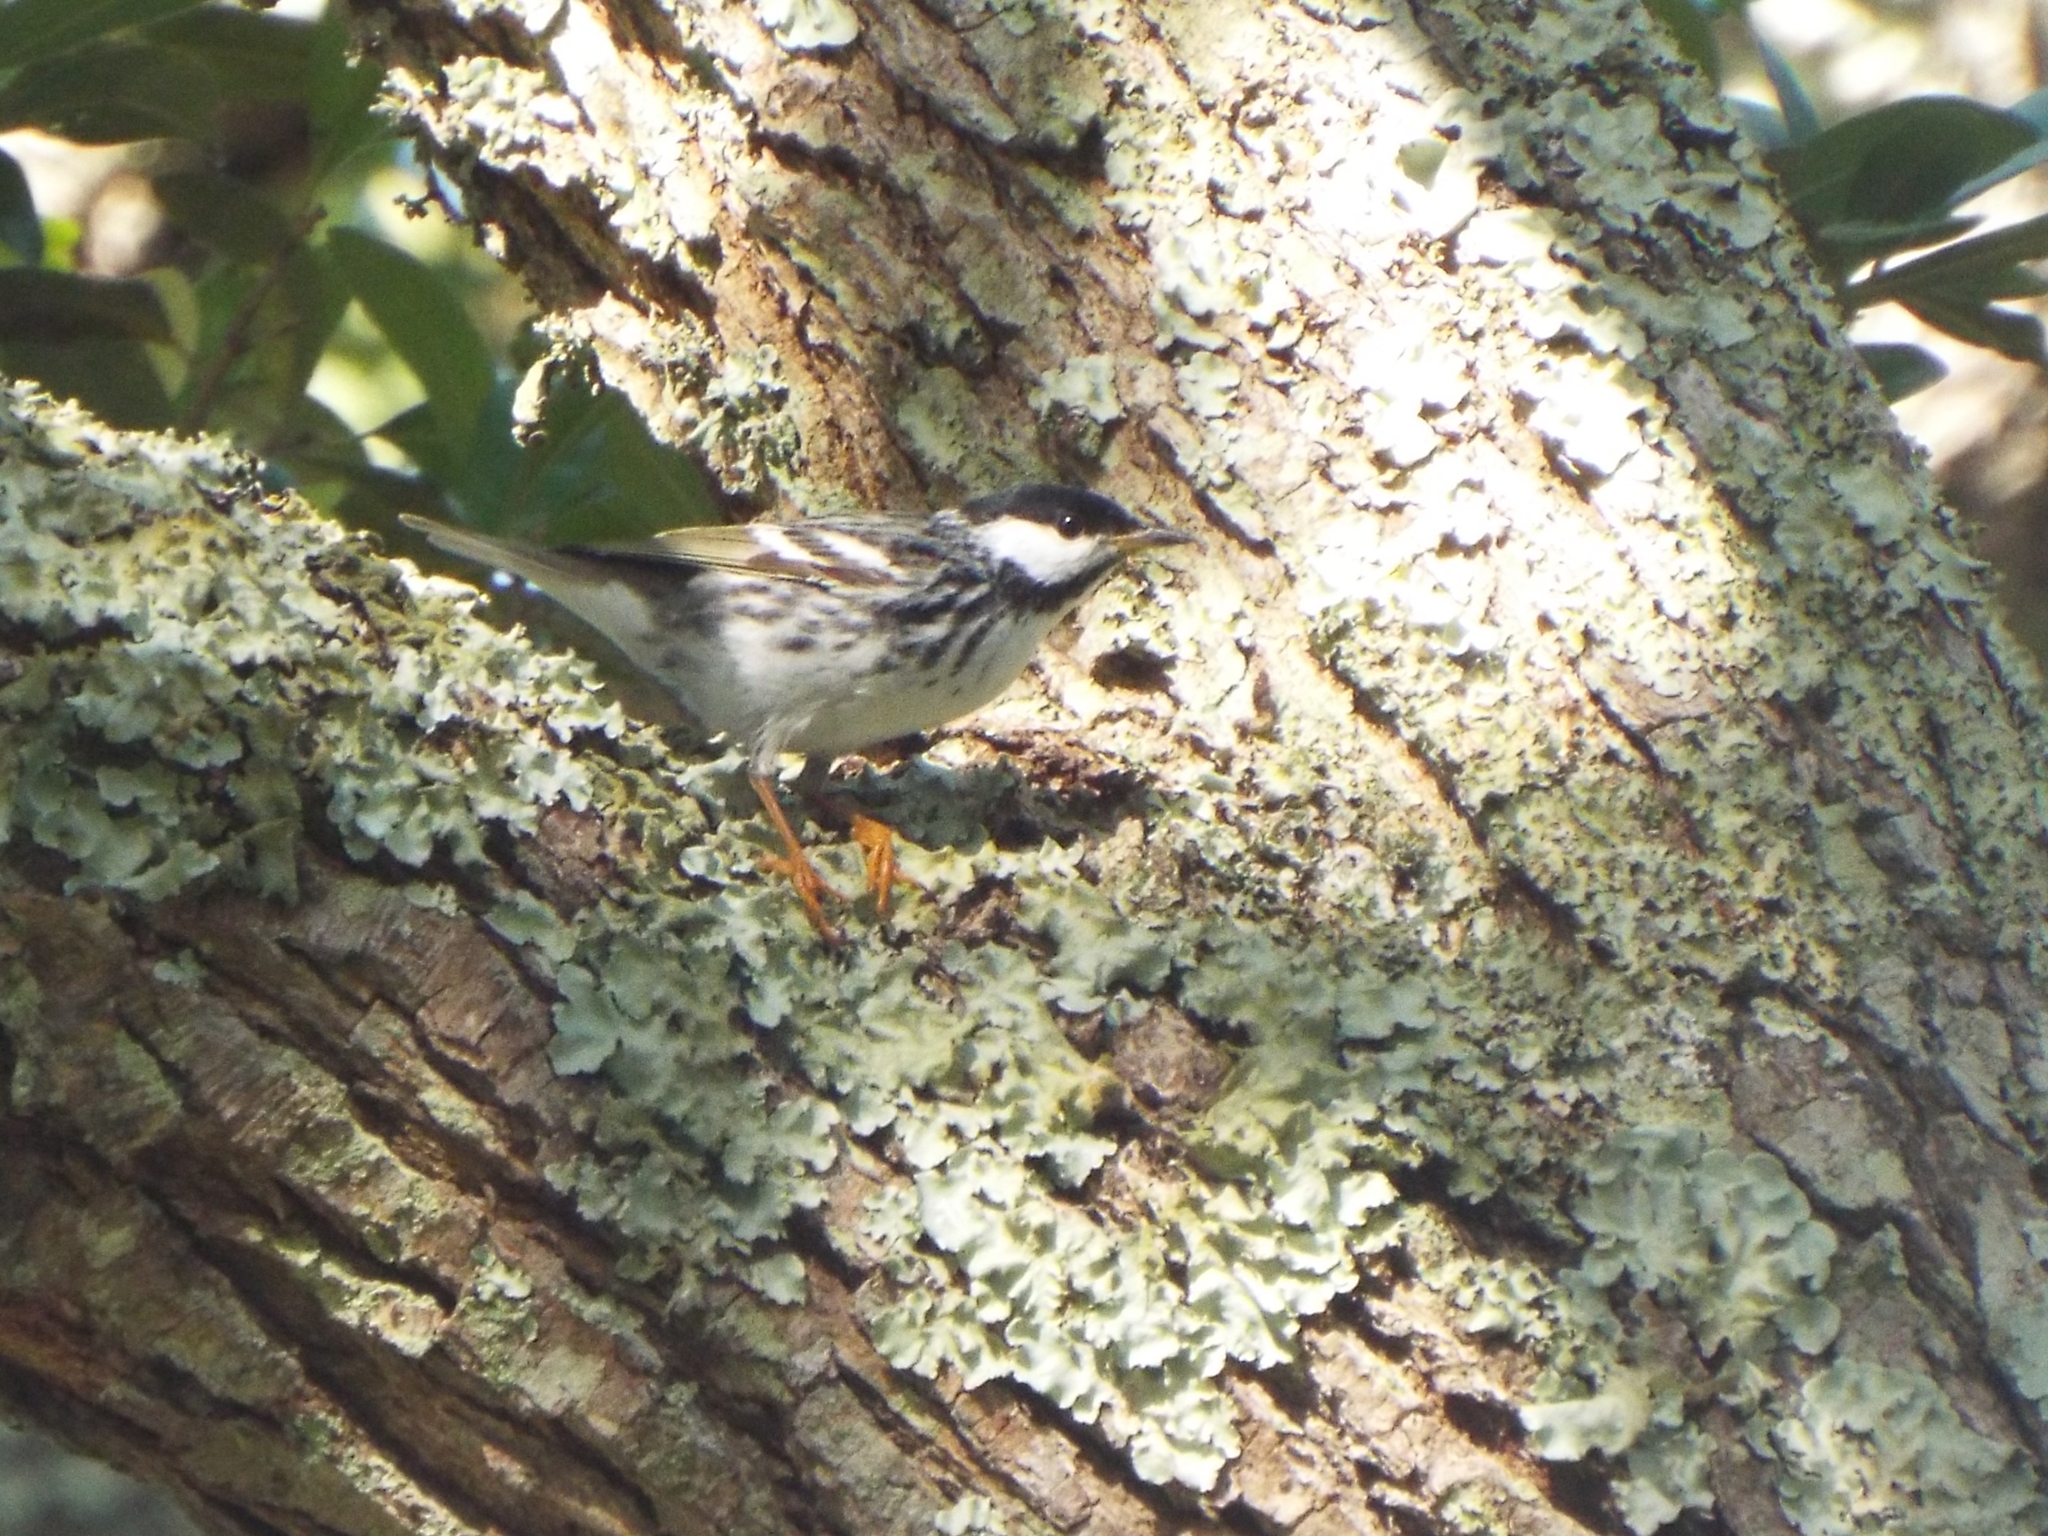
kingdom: Animalia
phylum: Chordata
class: Aves
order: Passeriformes
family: Parulidae
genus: Setophaga
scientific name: Setophaga striata
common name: Blackpoll warbler
